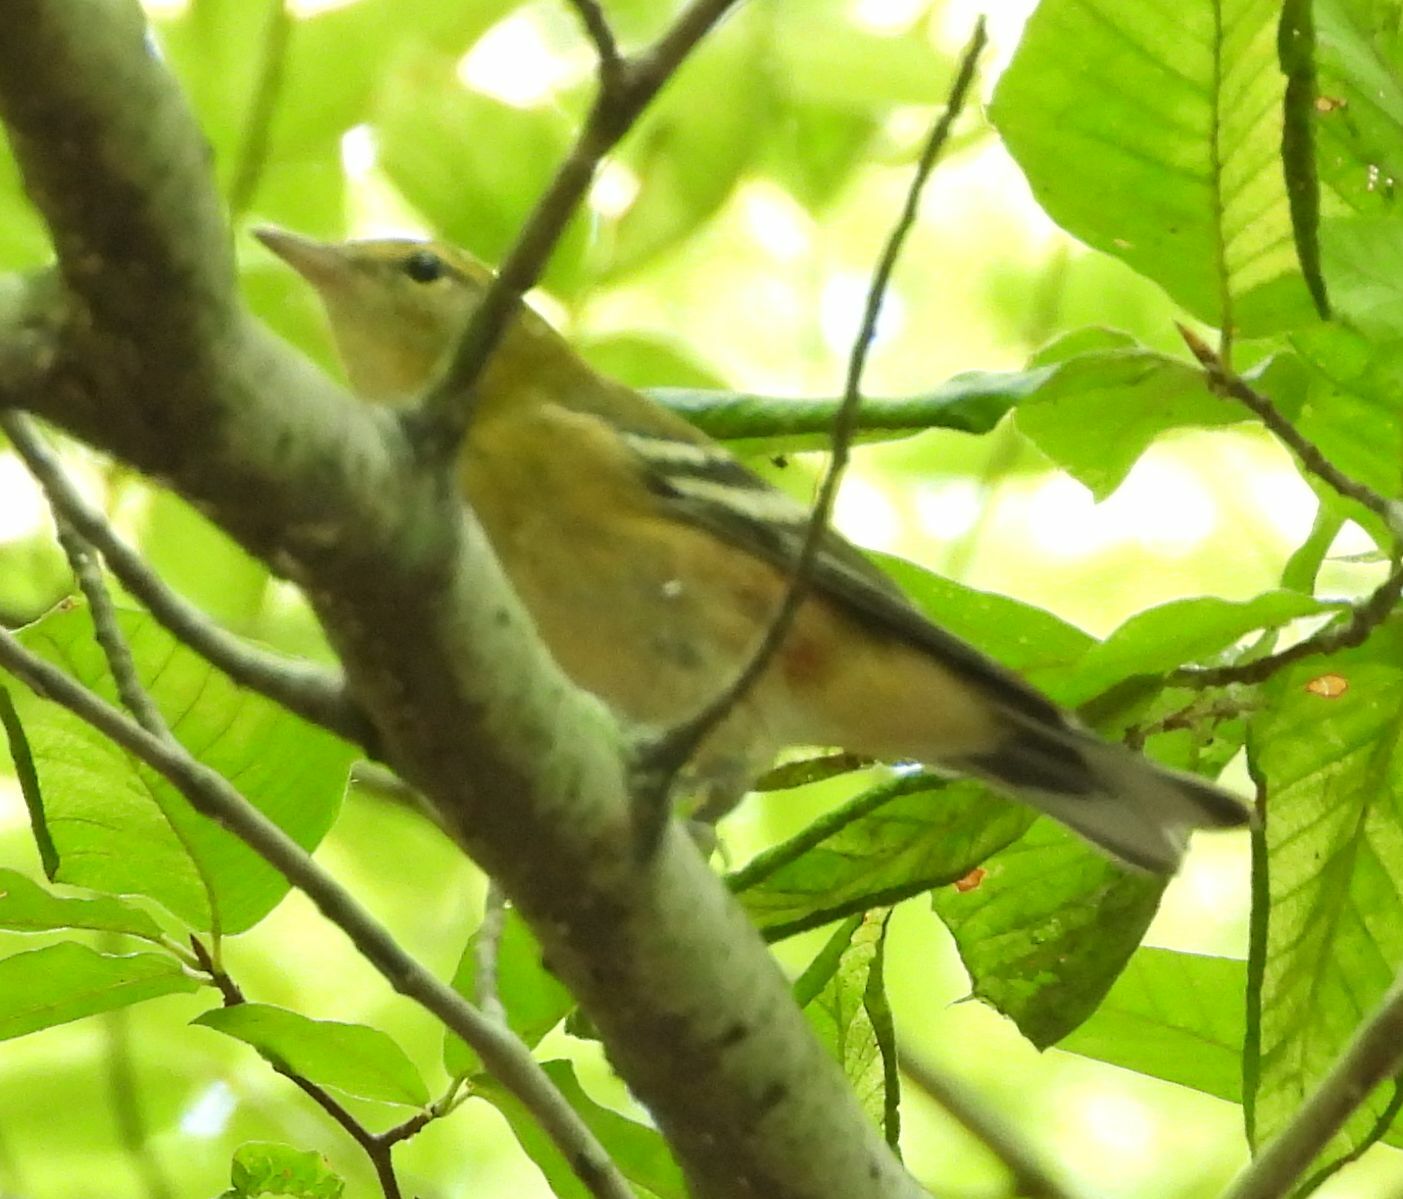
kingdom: Animalia
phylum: Chordata
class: Aves
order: Passeriformes
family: Parulidae
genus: Setophaga
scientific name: Setophaga castanea
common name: Bay-breasted warbler
